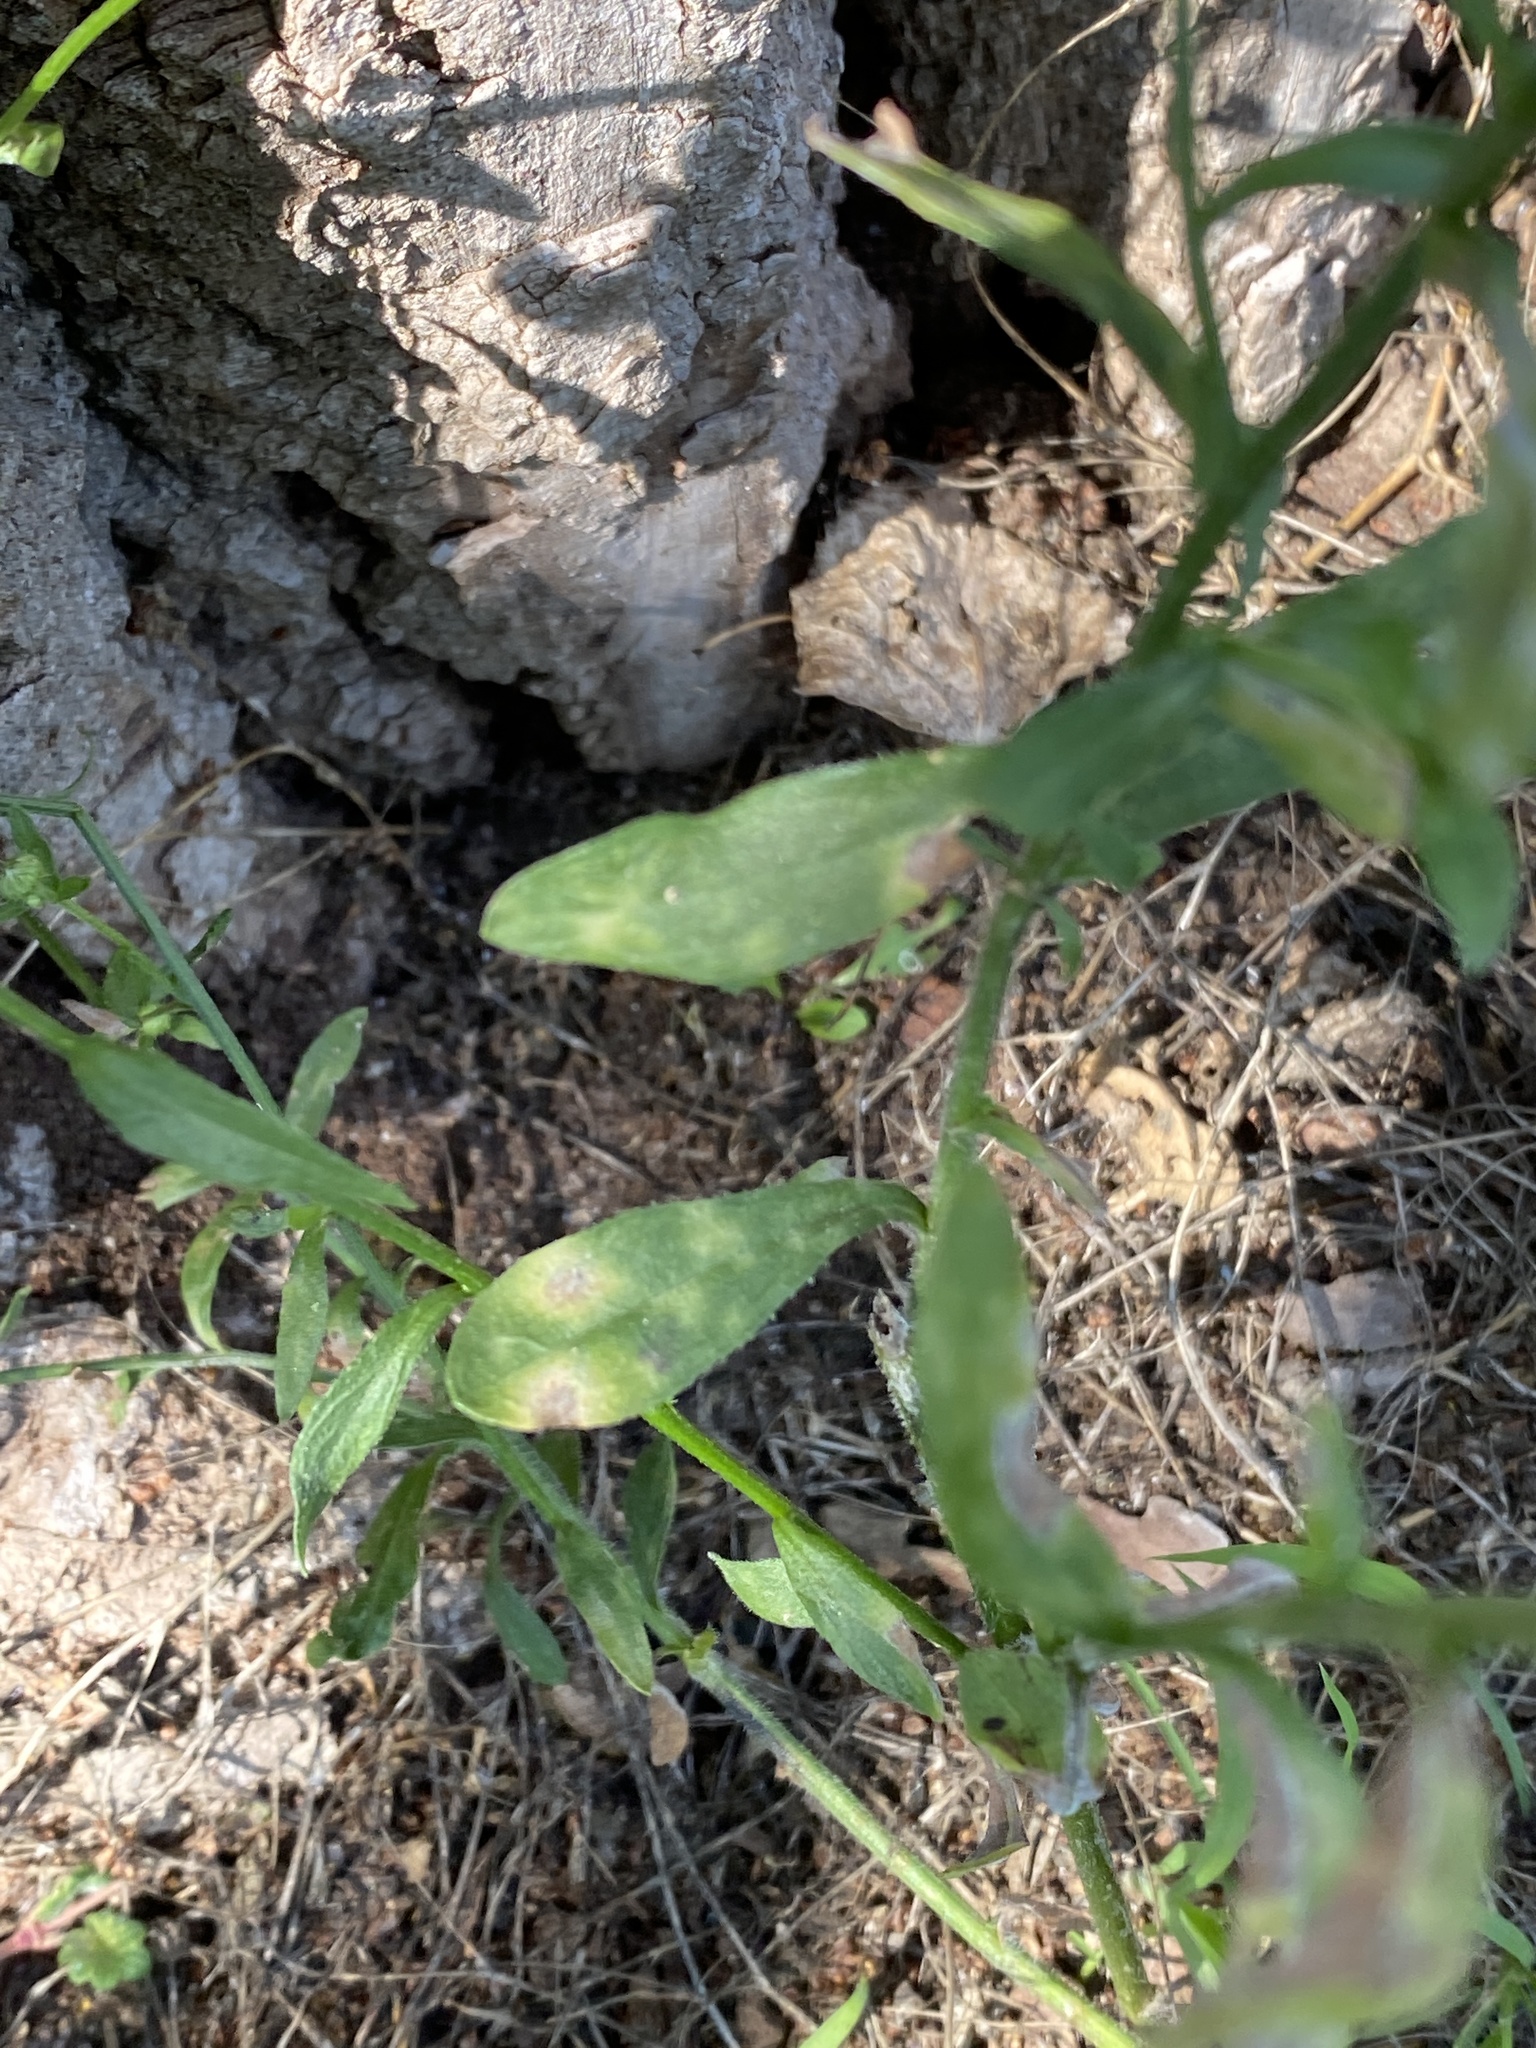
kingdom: Plantae
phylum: Tracheophyta
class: Magnoliopsida
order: Asterales
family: Asteraceae
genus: Erigeron
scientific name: Erigeron strigosus
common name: Common eastern fleabane
